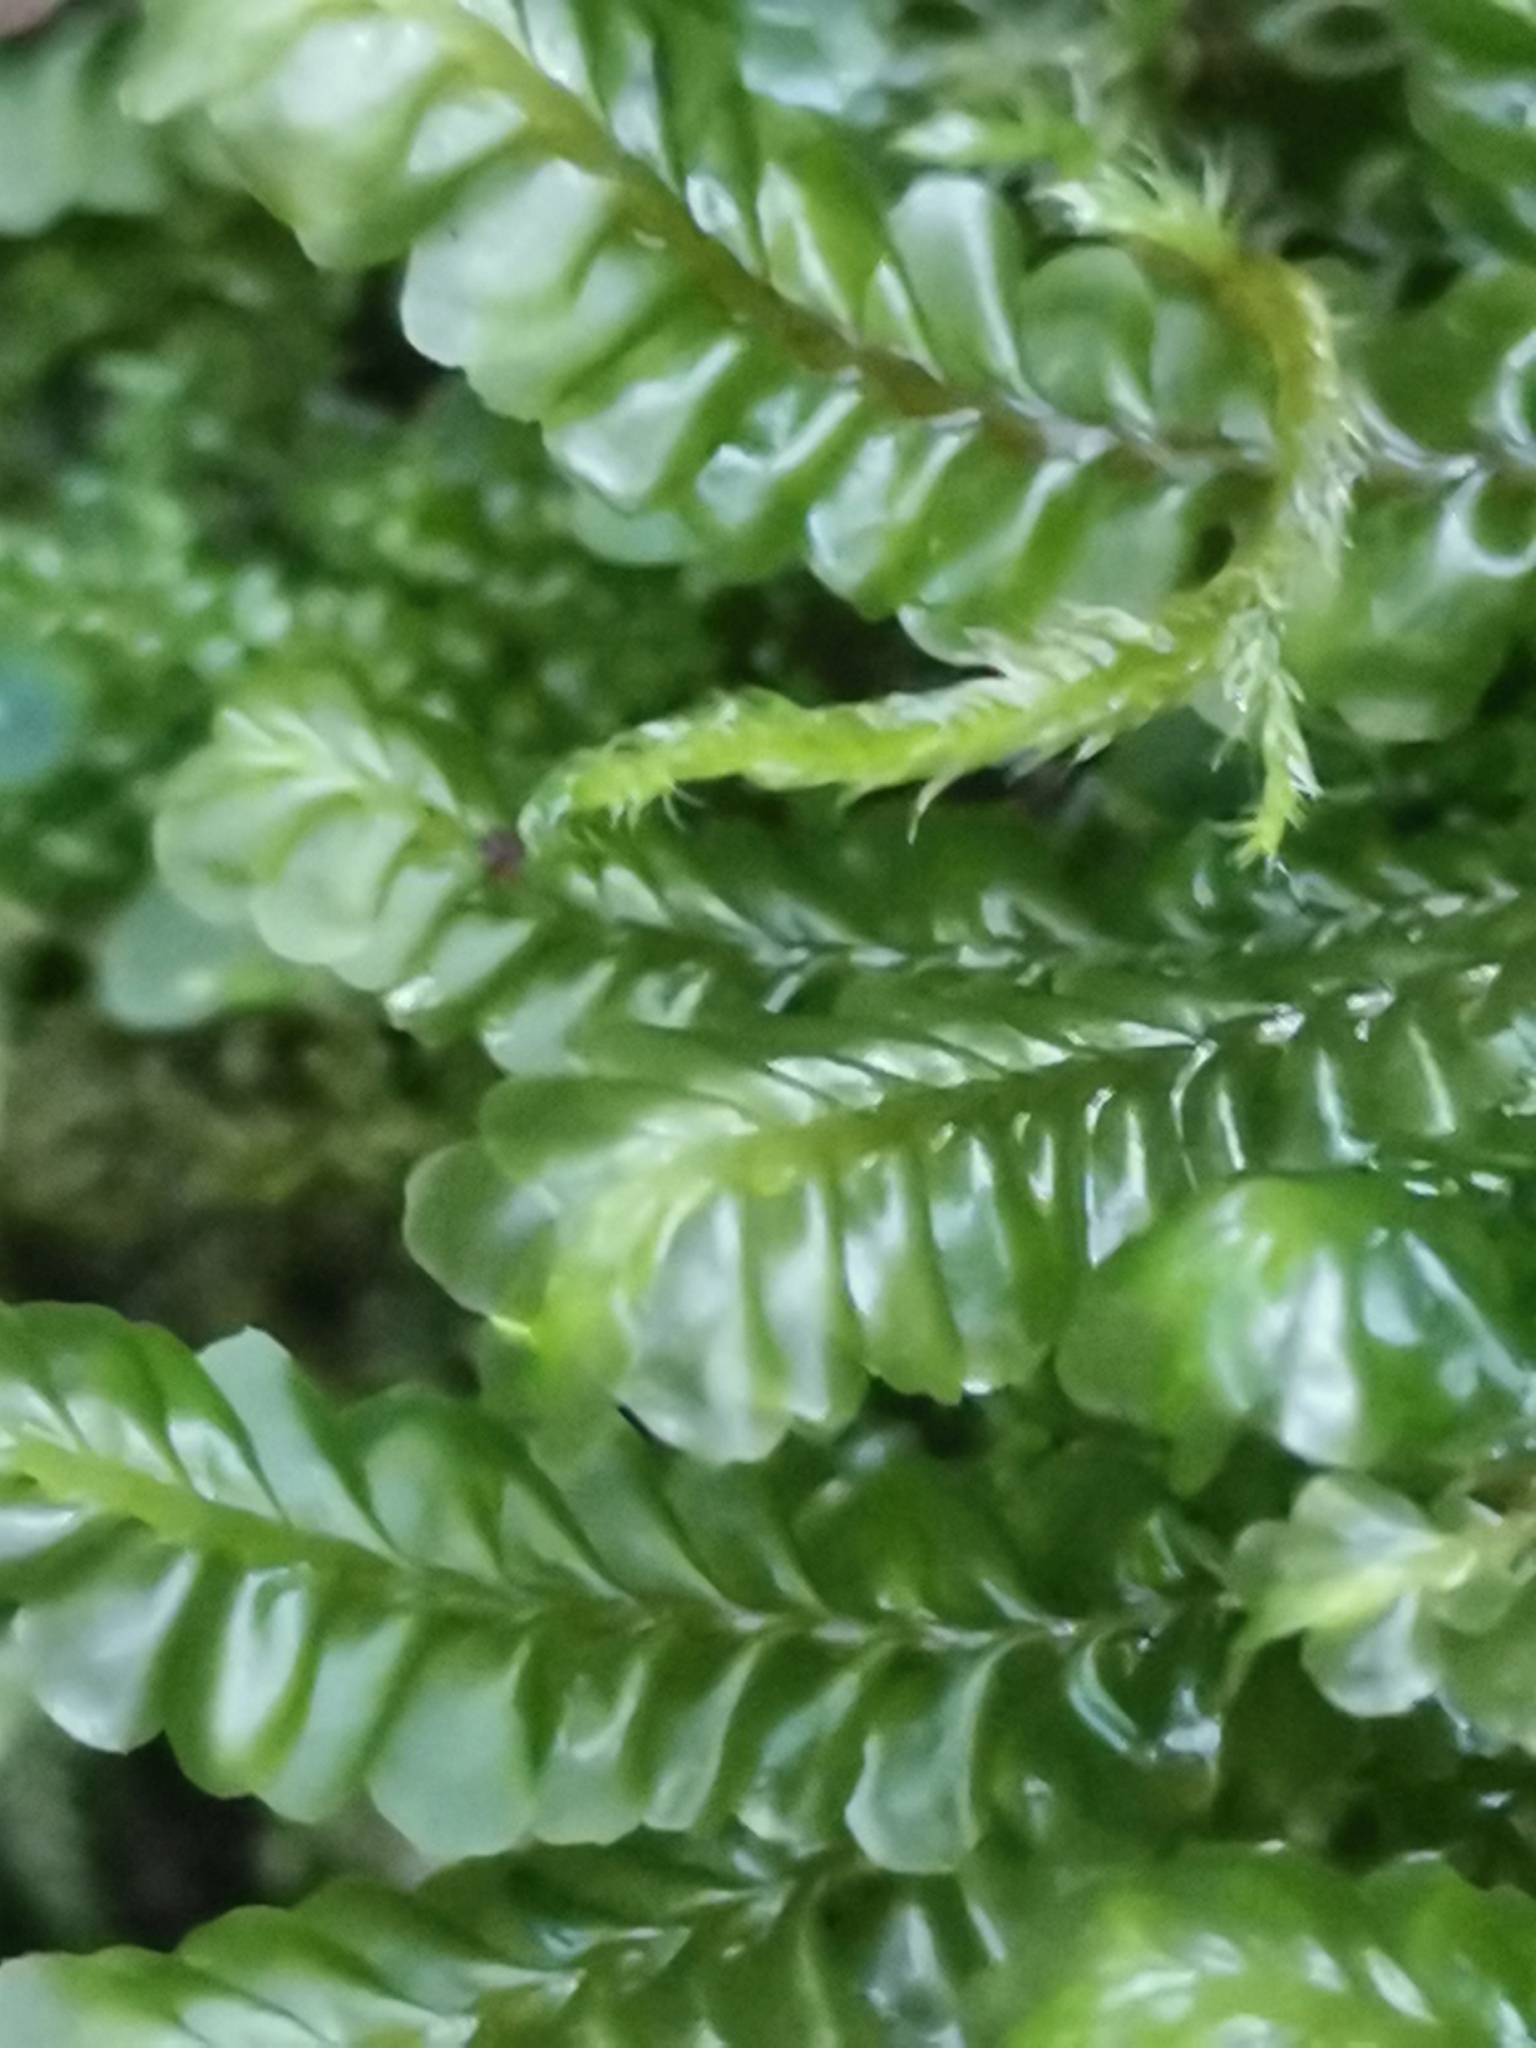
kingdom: Plantae
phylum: Marchantiophyta
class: Jungermanniopsida
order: Jungermanniales
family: Plagiochilaceae
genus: Plagiochila
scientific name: Plagiochila asplenioides
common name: Greater featherwort
